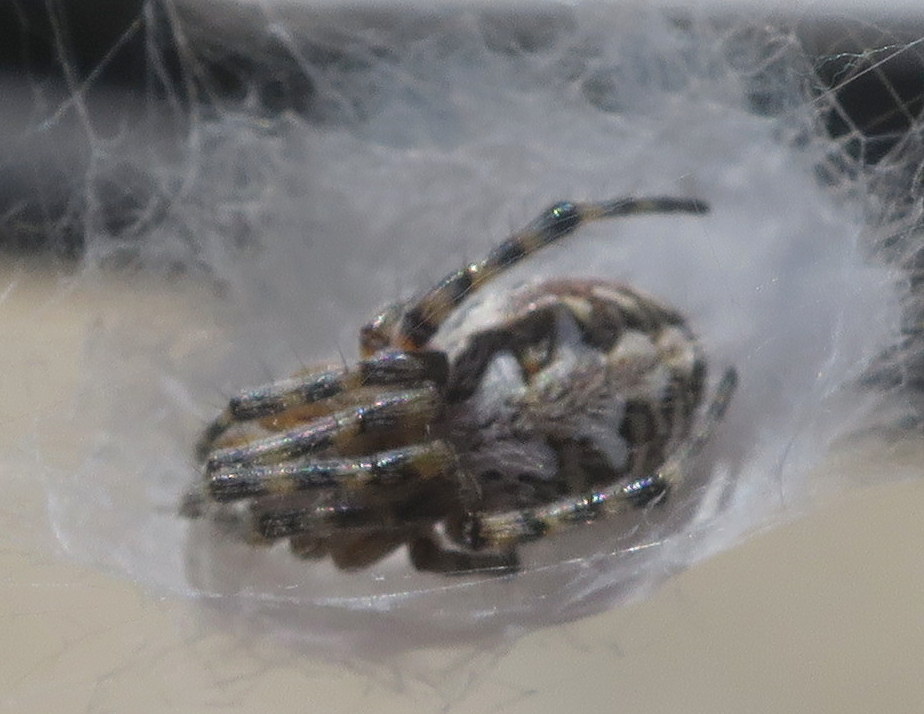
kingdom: Animalia
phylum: Arthropoda
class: Arachnida
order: Araneae
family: Araneidae
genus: Araneus
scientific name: Araneus annulipes
